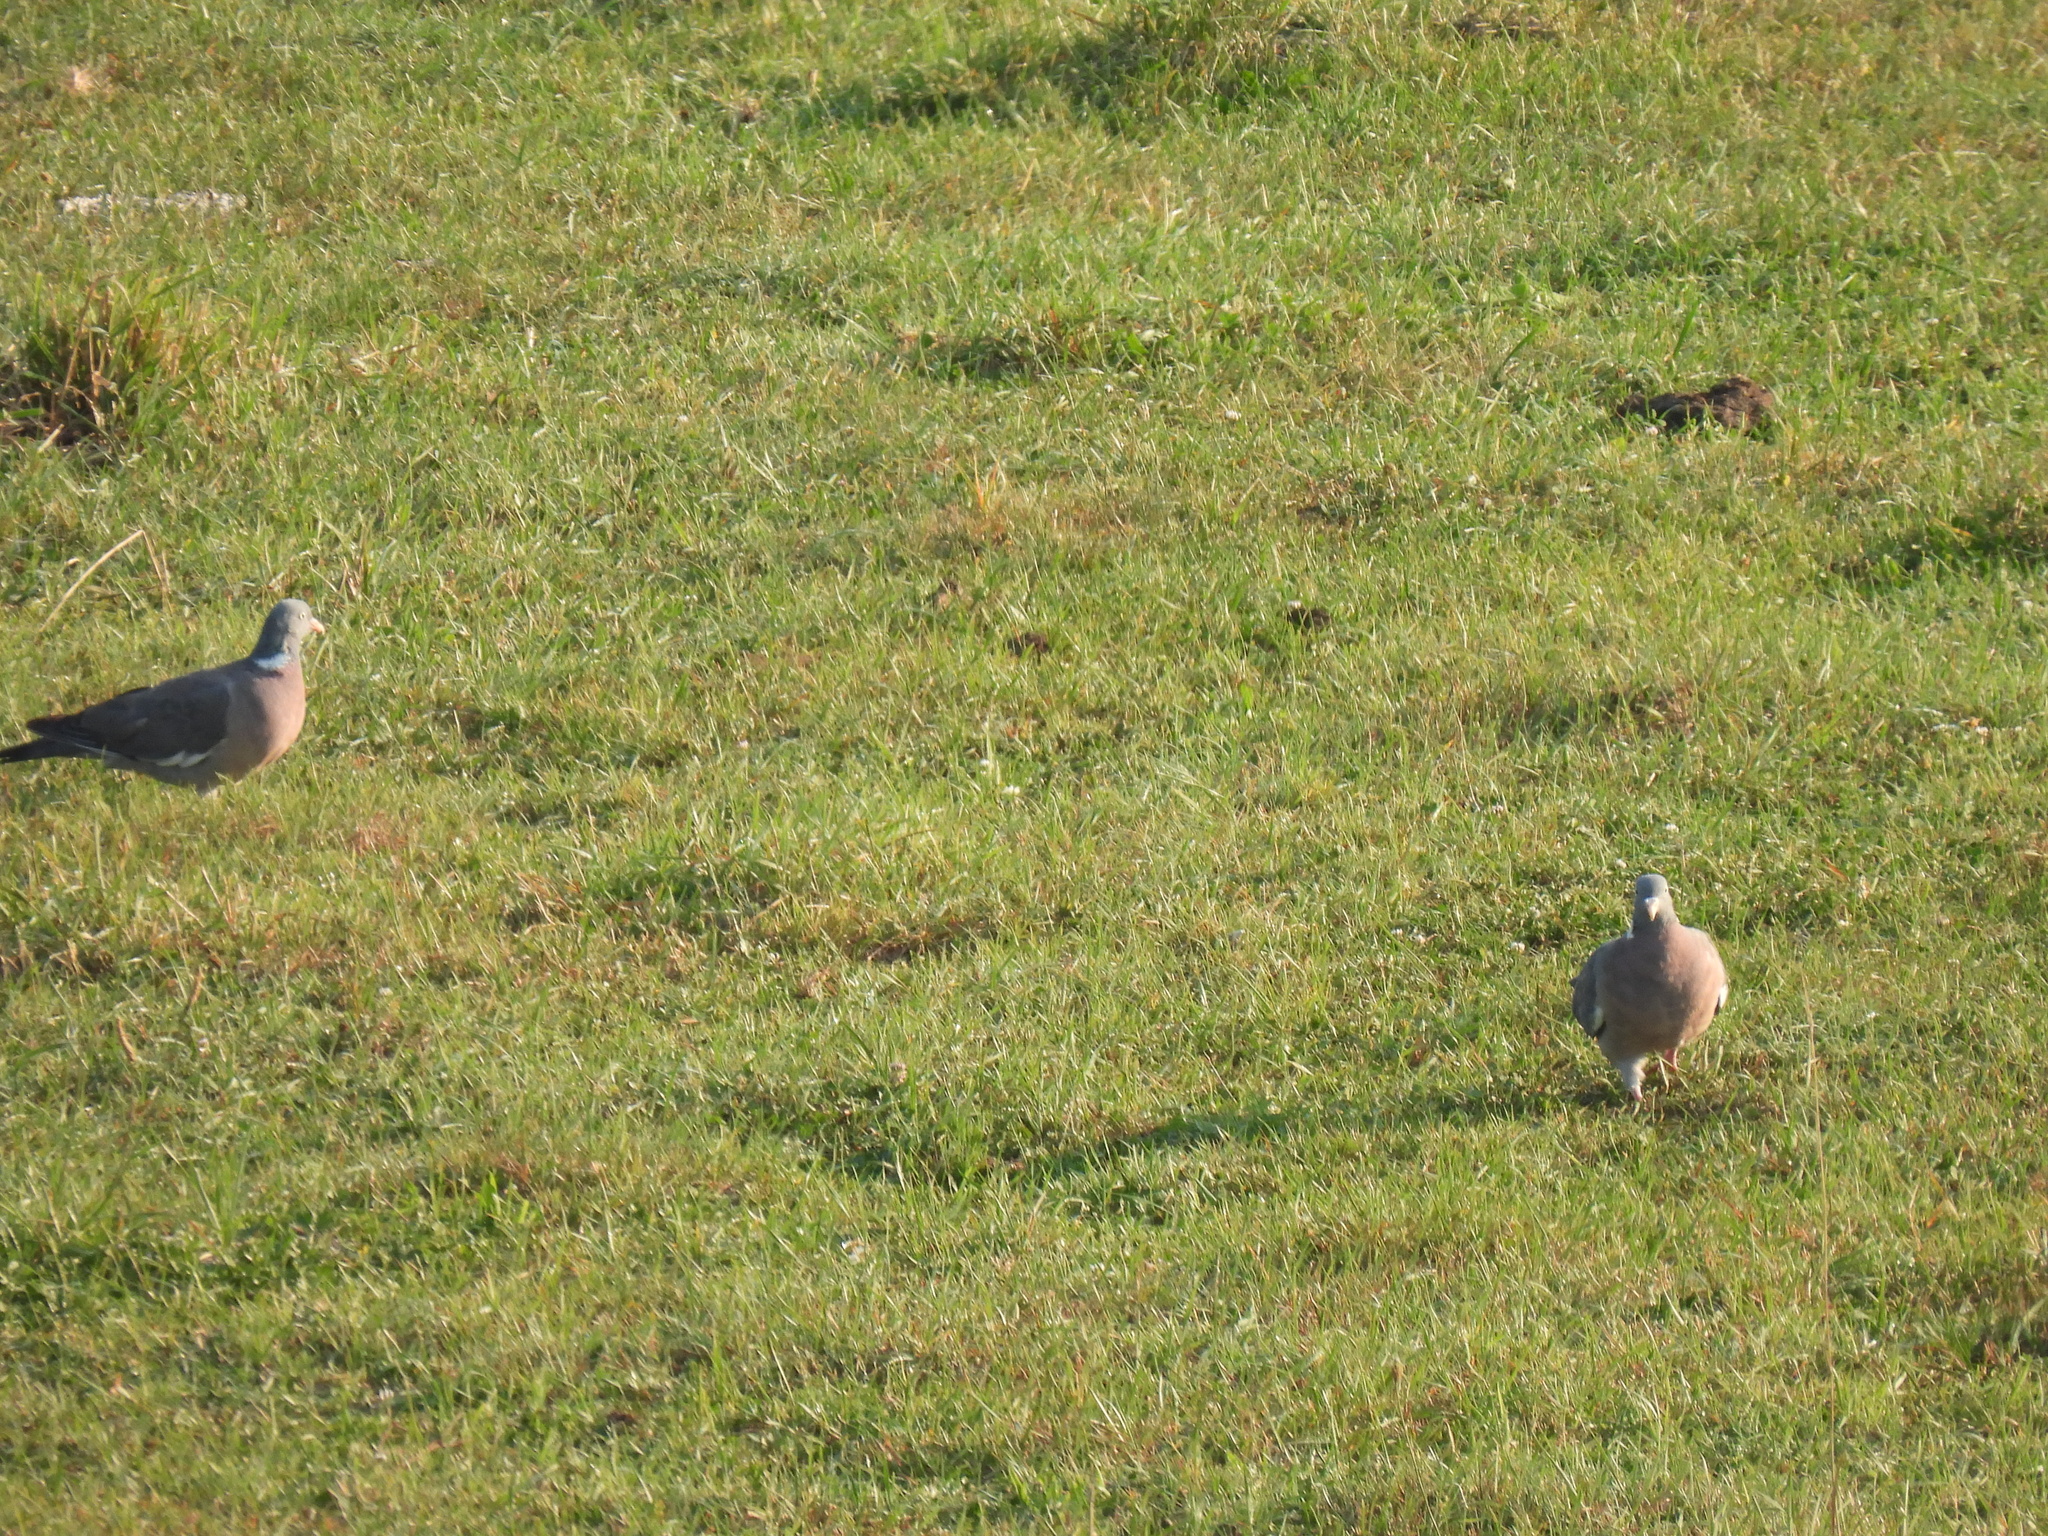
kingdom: Animalia
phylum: Chordata
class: Aves
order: Columbiformes
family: Columbidae
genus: Columba
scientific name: Columba palumbus
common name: Common wood pigeon
